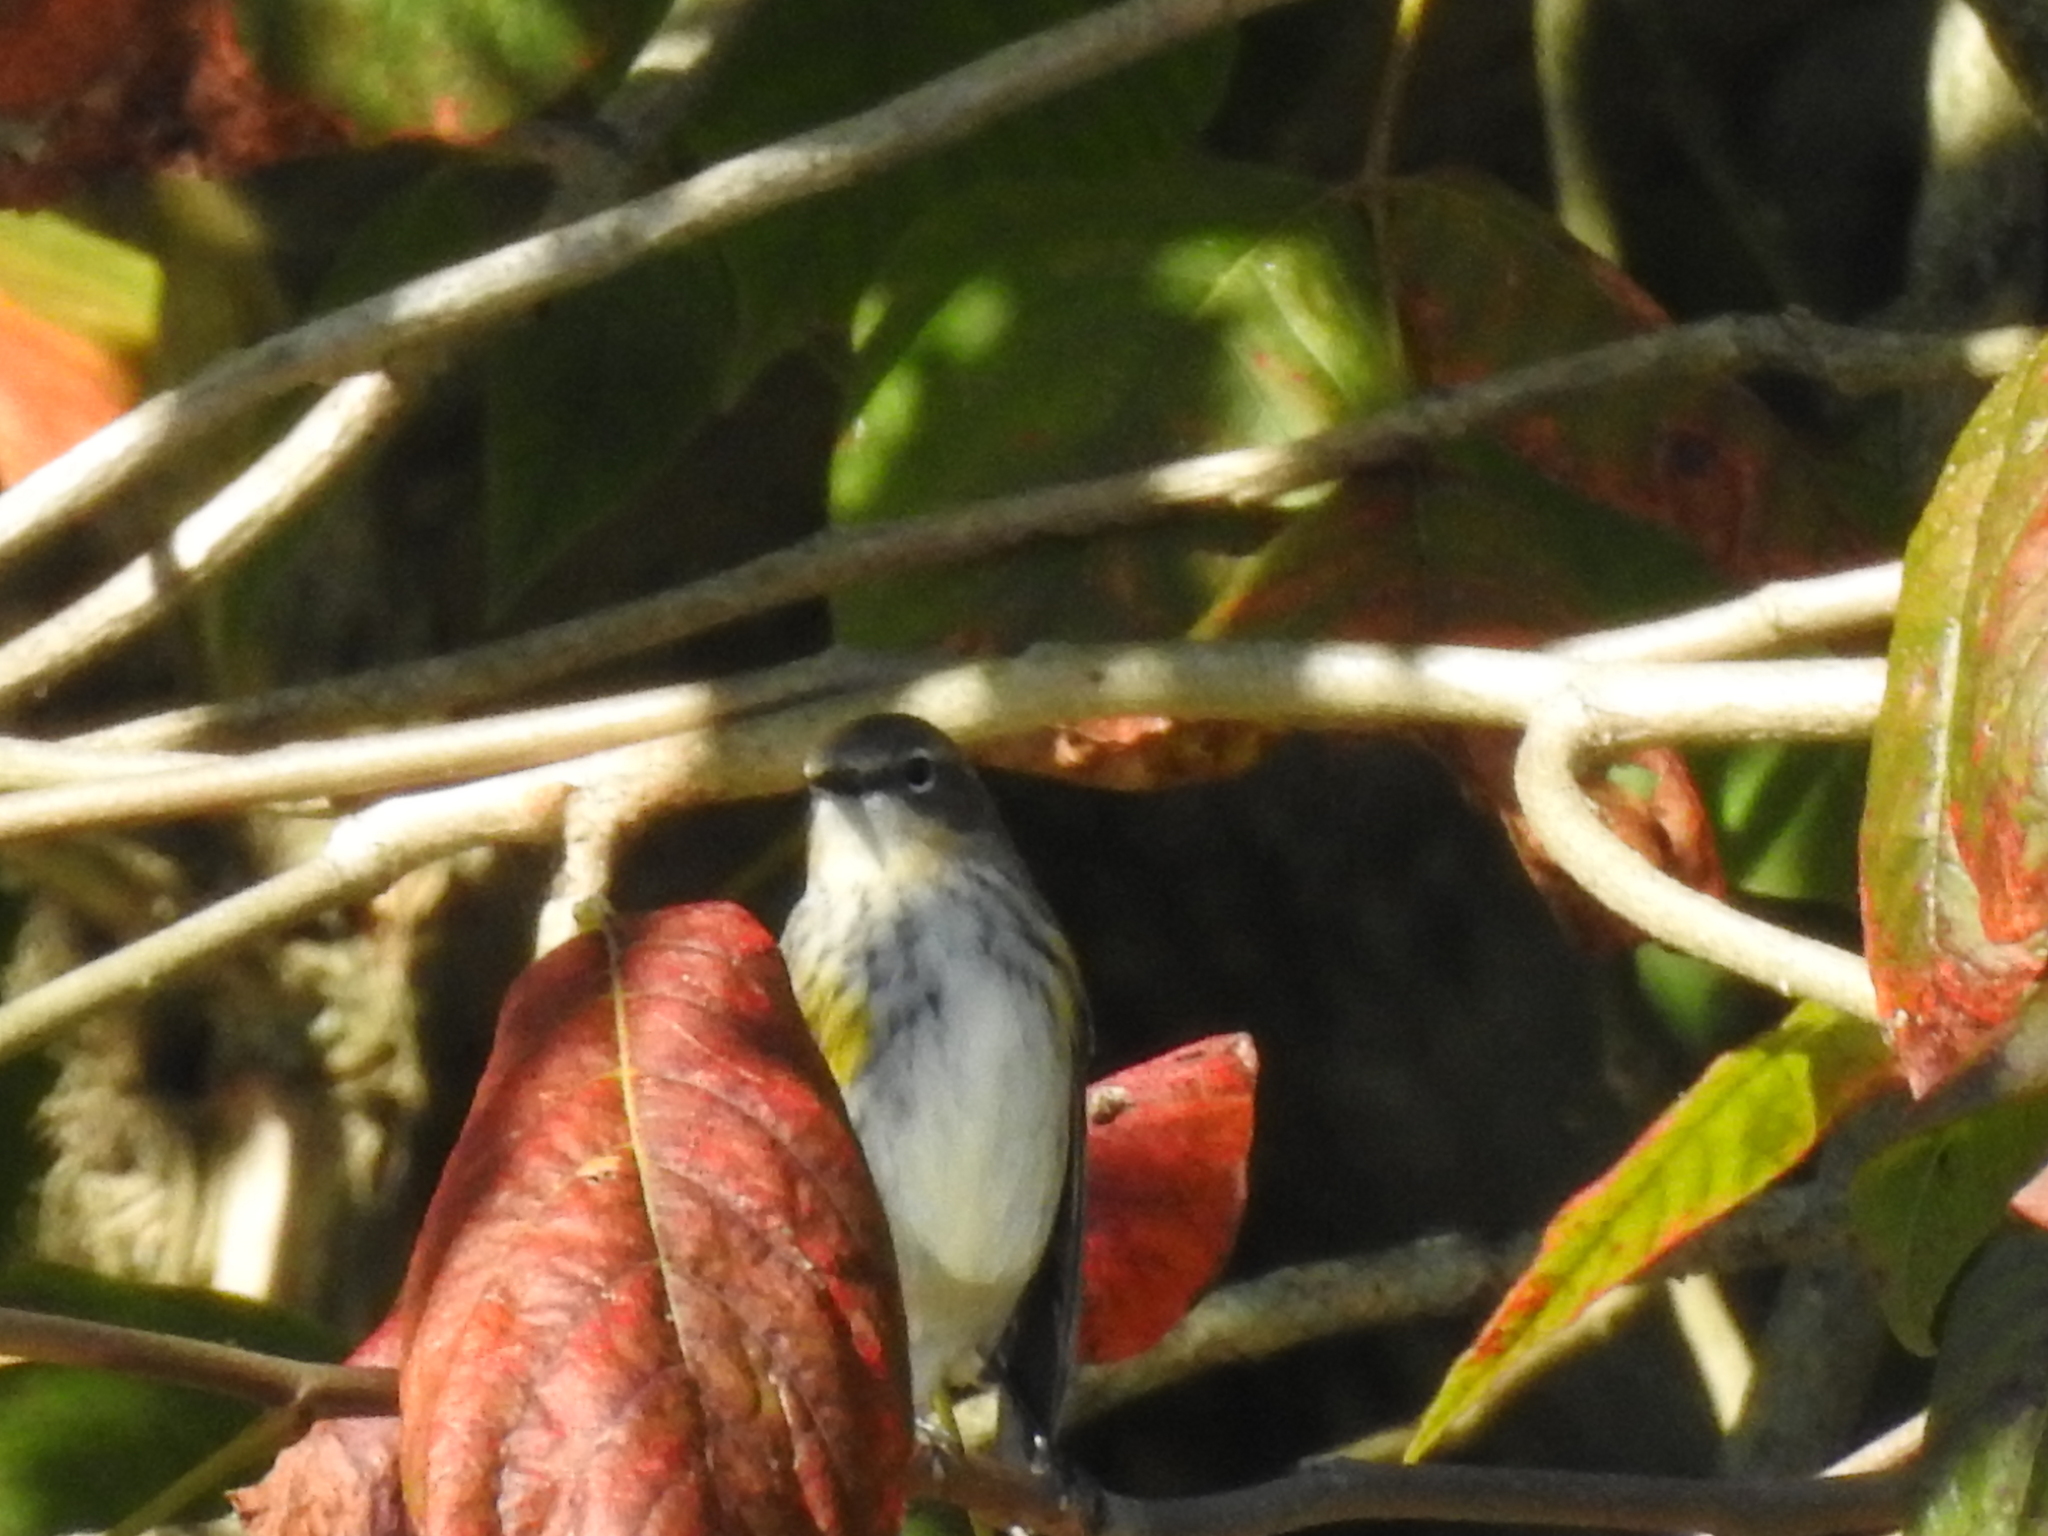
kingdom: Animalia
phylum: Chordata
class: Aves
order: Passeriformes
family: Parulidae
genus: Setophaga
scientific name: Setophaga coronata
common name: Myrtle warbler
